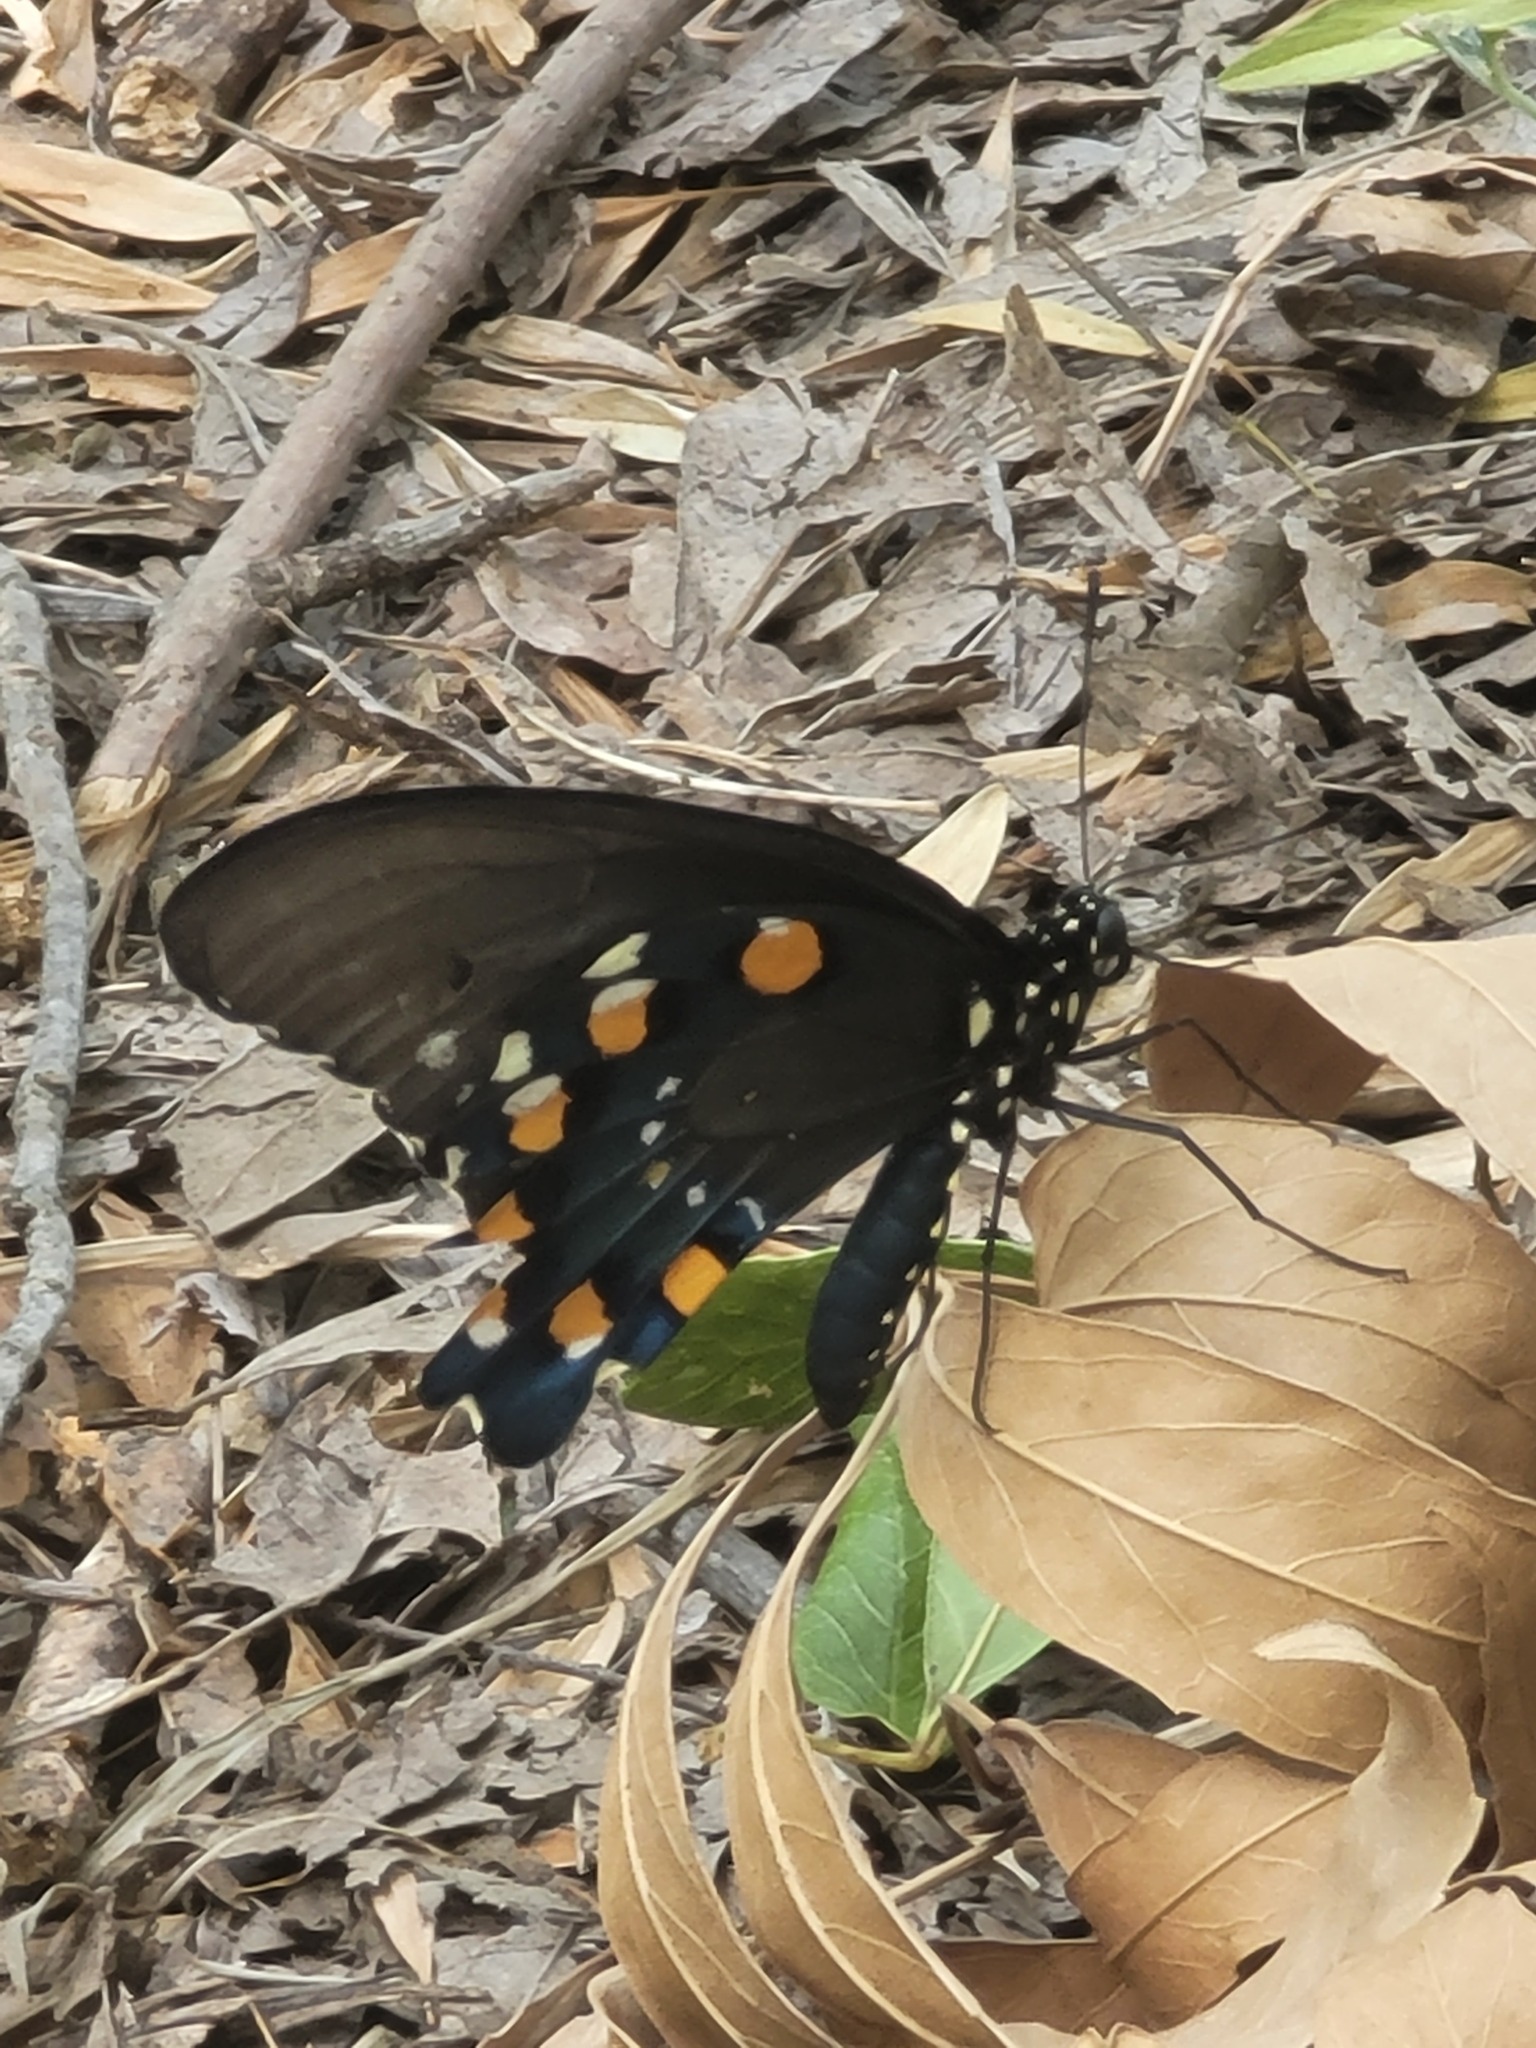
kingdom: Animalia
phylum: Arthropoda
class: Insecta
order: Lepidoptera
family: Papilionidae
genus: Battus
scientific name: Battus philenor
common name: Pipevine swallowtail
